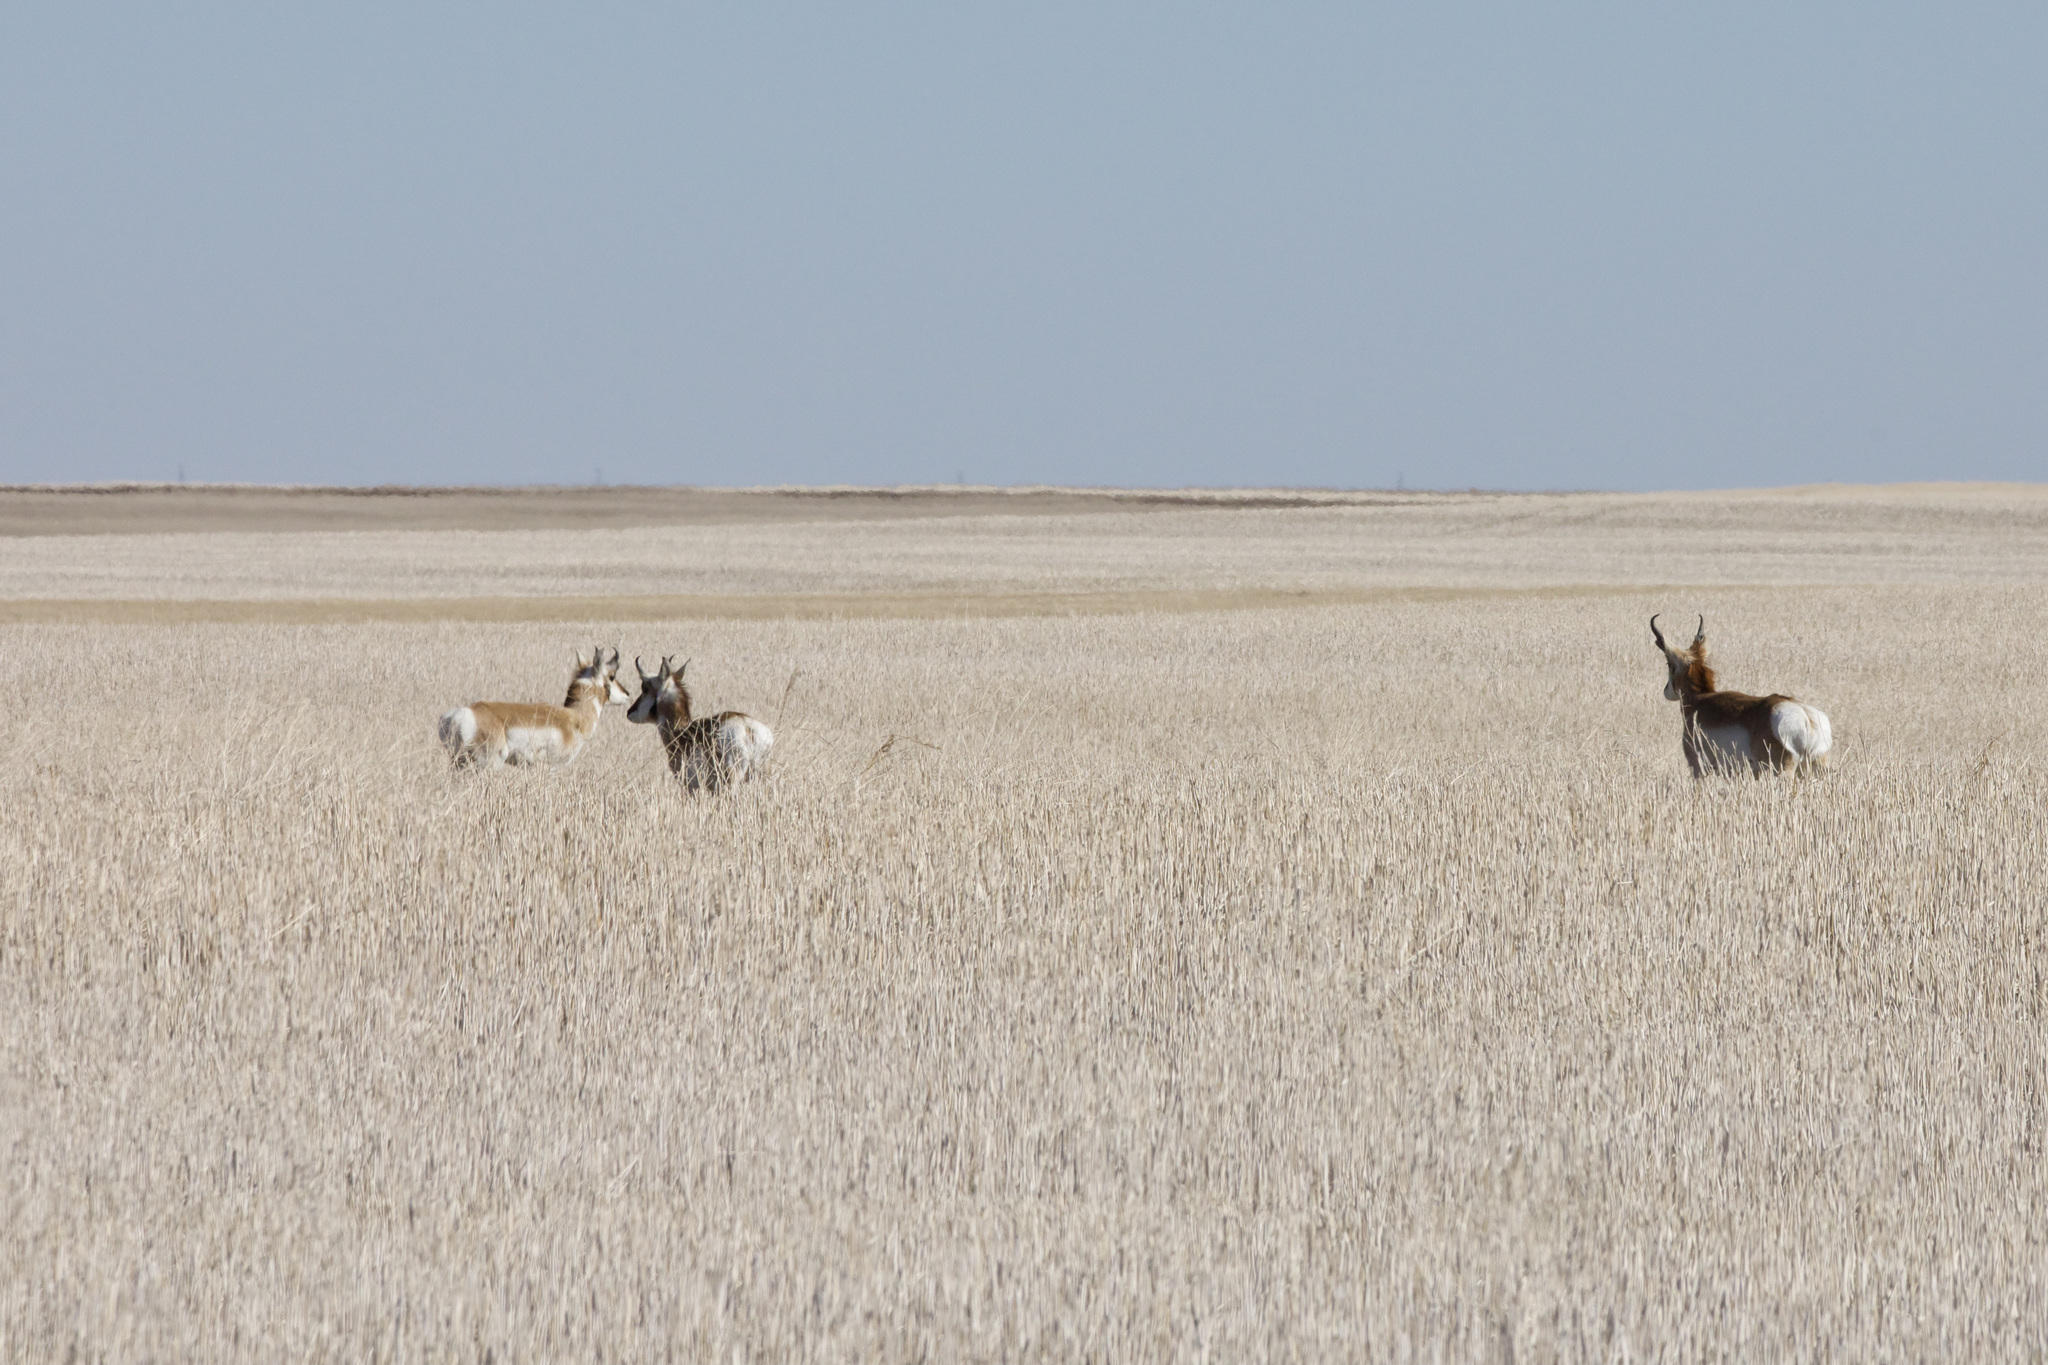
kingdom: Animalia
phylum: Chordata
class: Mammalia
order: Artiodactyla
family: Antilocapridae
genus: Antilocapra
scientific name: Antilocapra americana
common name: Pronghorn
